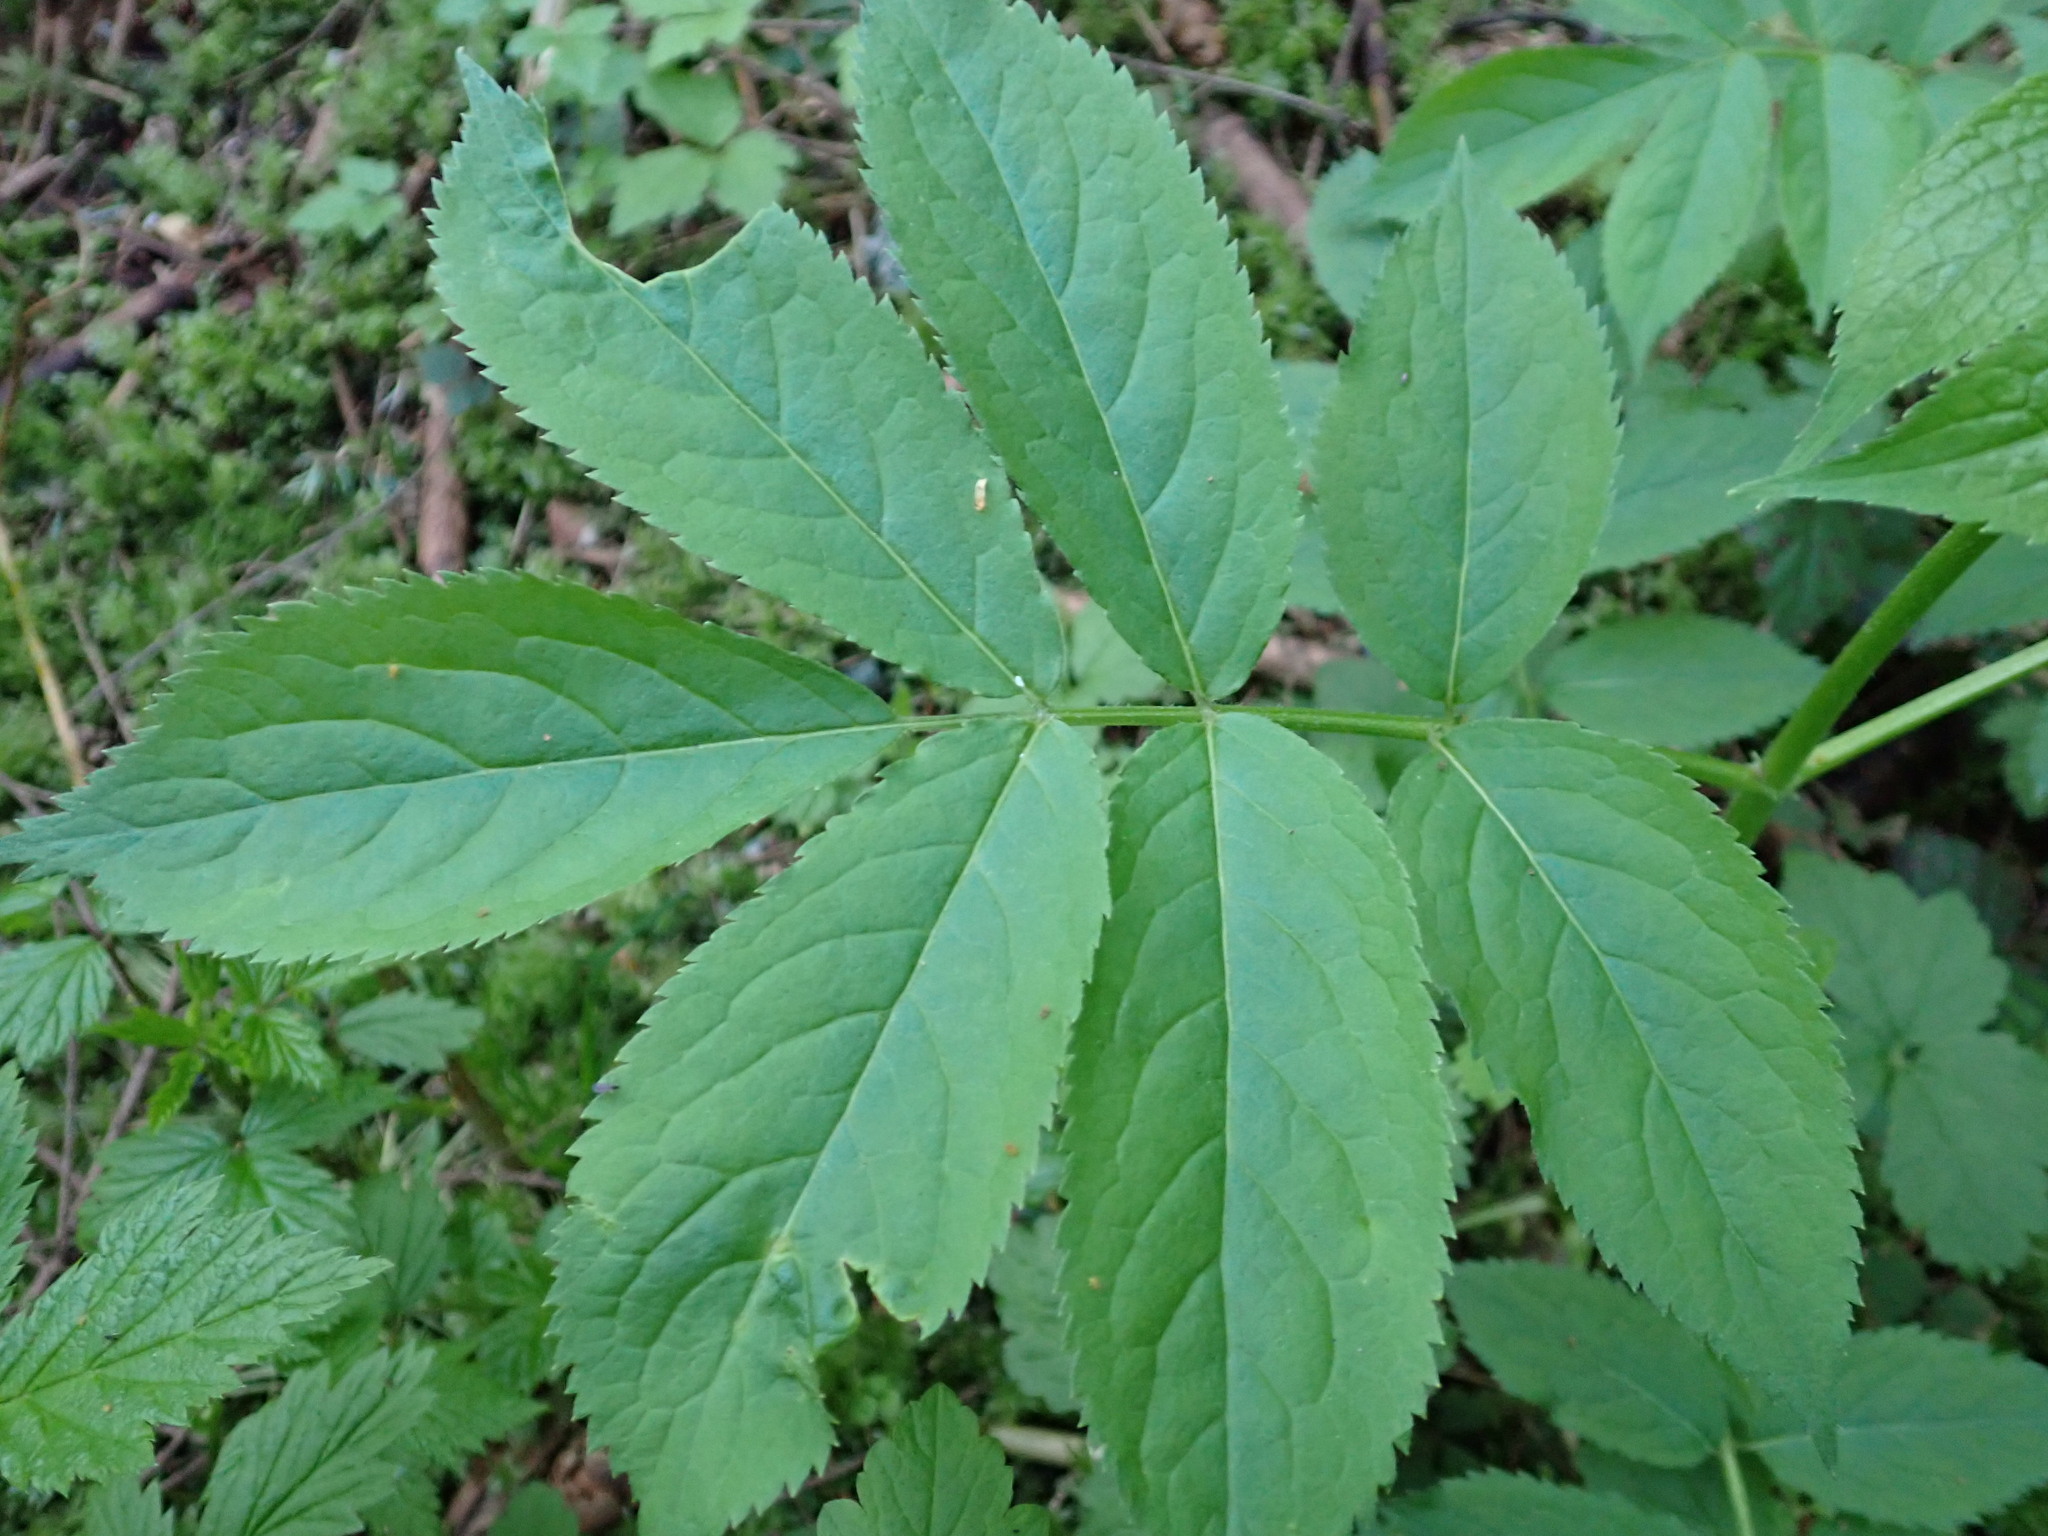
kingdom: Plantae
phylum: Tracheophyta
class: Magnoliopsida
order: Dipsacales
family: Viburnaceae
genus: Sambucus
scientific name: Sambucus racemosa
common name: Red-berried elder
